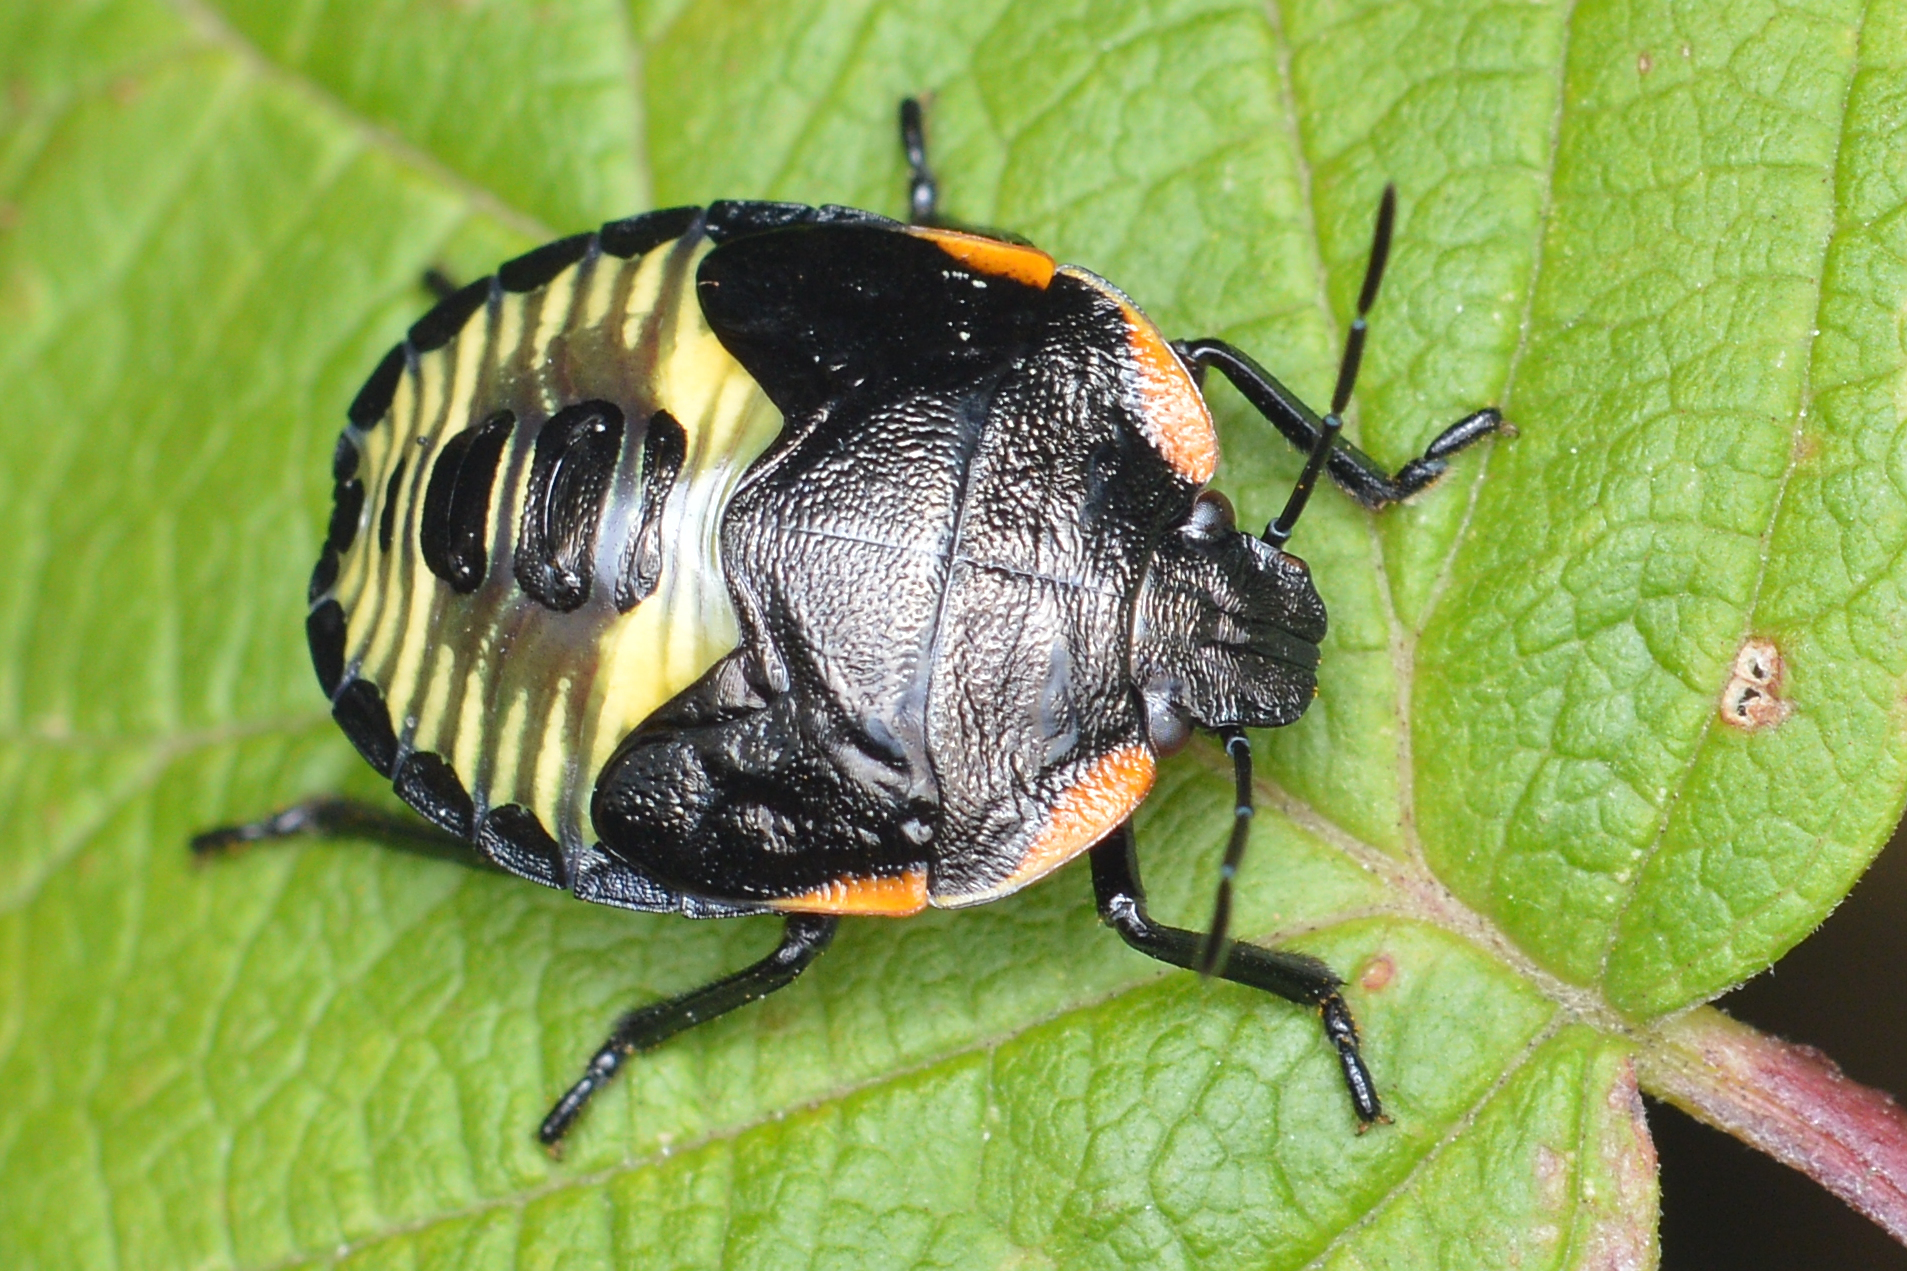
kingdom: Animalia
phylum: Arthropoda
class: Insecta
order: Hemiptera
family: Pentatomidae
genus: Chinavia
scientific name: Chinavia hilaris
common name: Green stink bug
